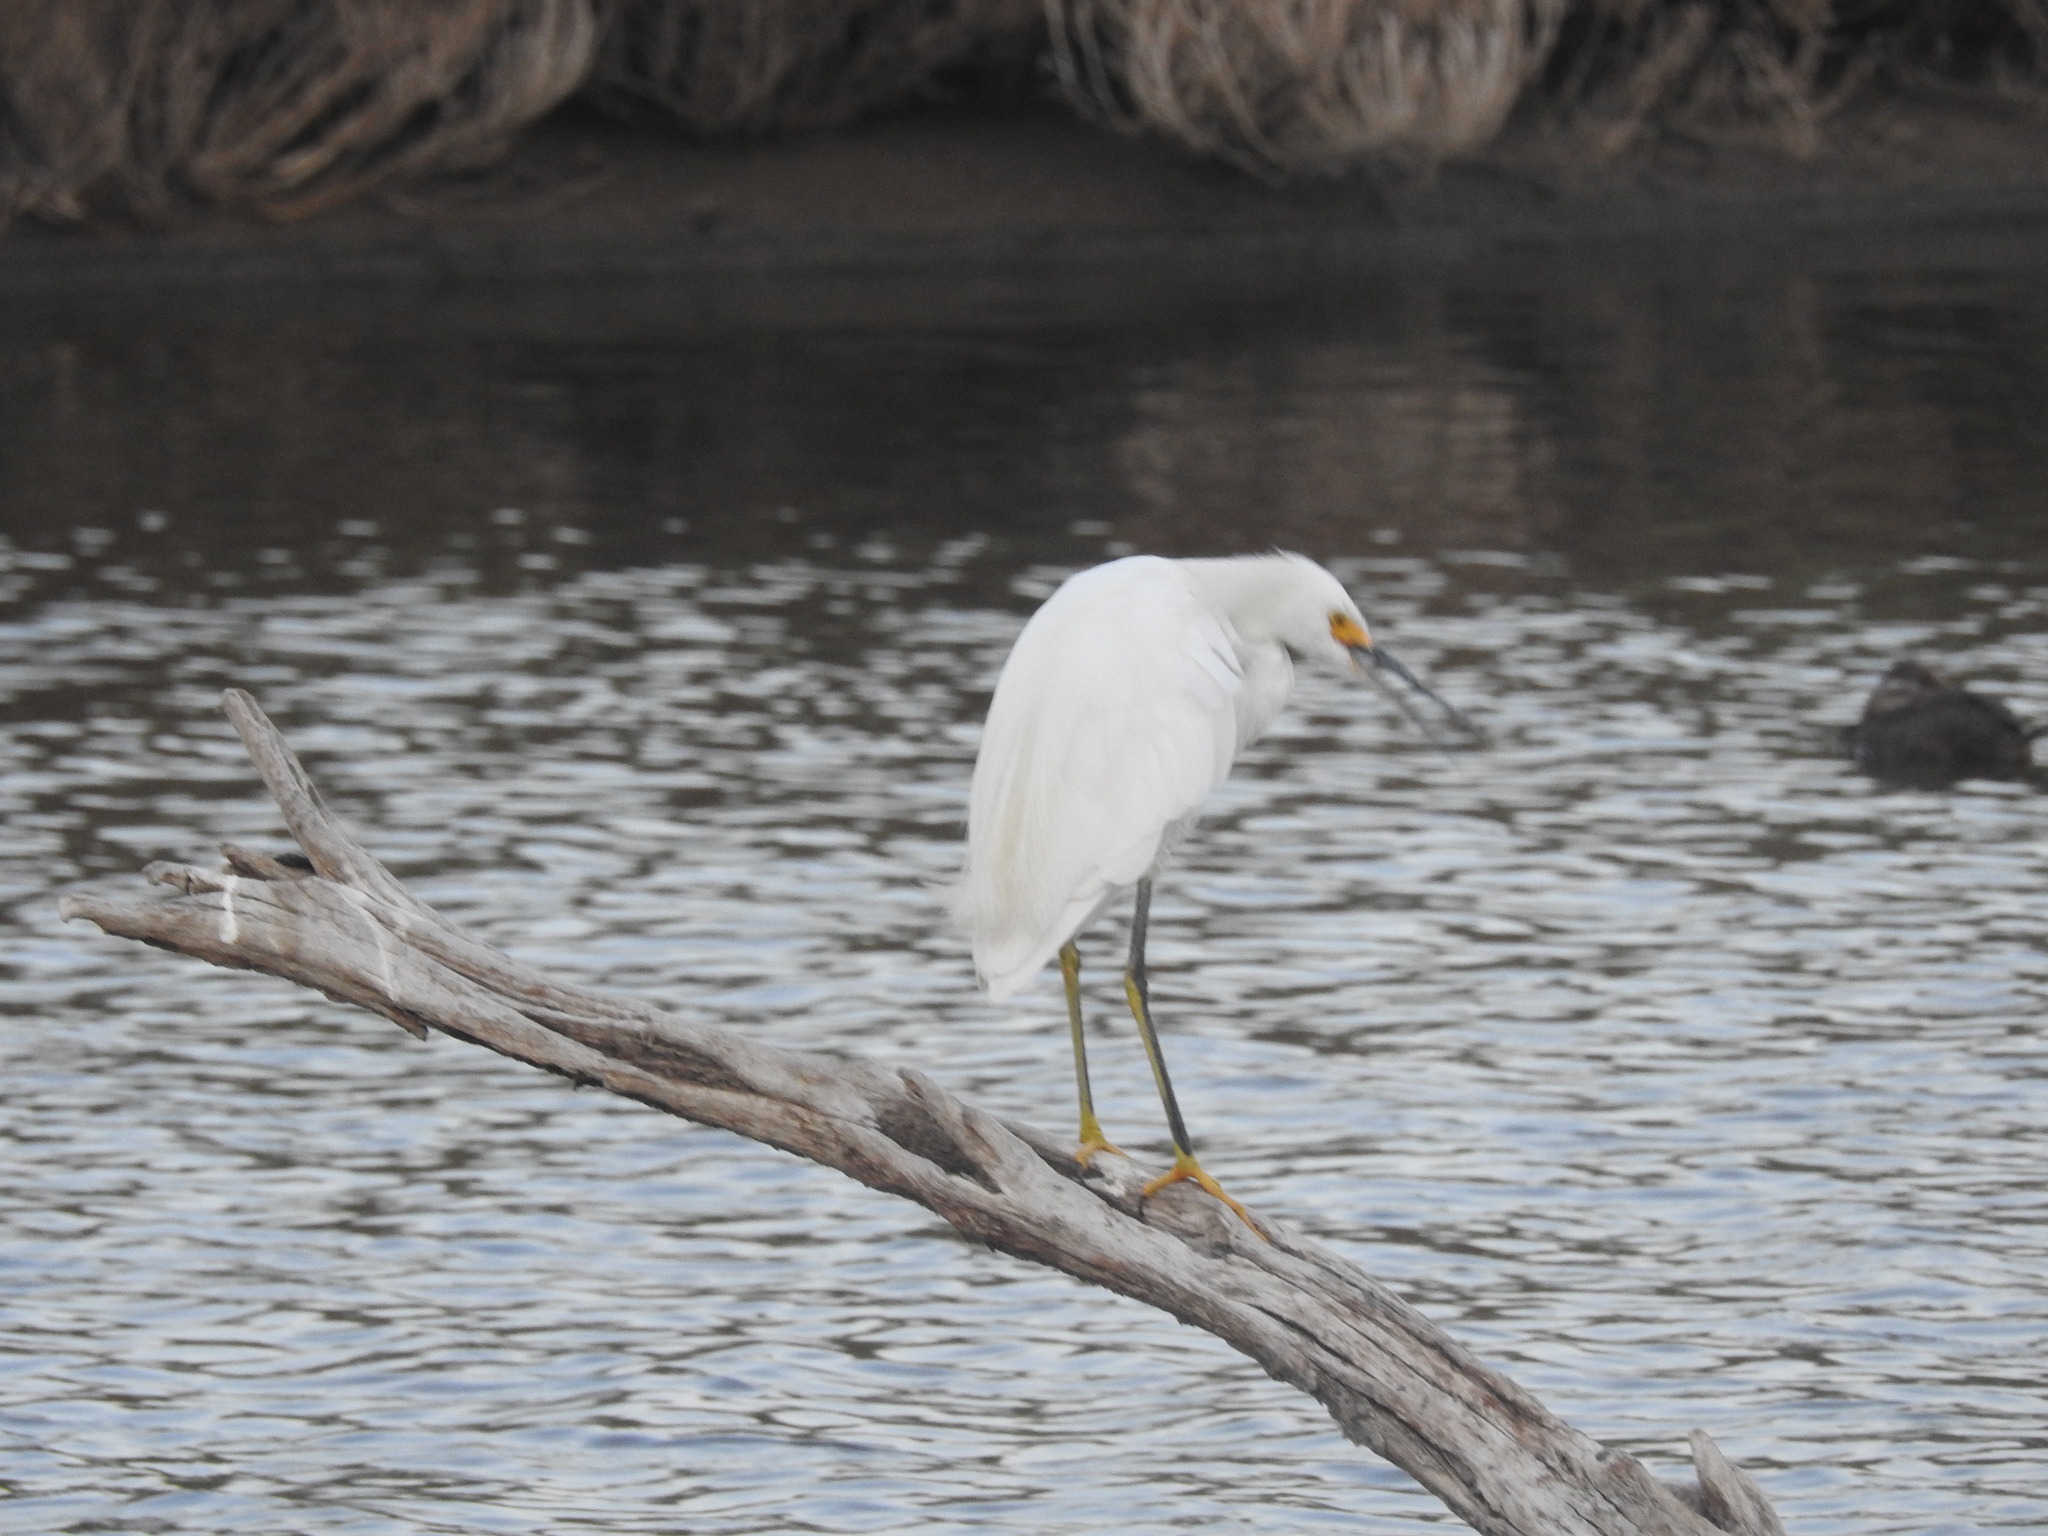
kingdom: Animalia
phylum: Chordata
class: Aves
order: Pelecaniformes
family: Ardeidae
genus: Egretta
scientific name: Egretta thula
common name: Snowy egret
